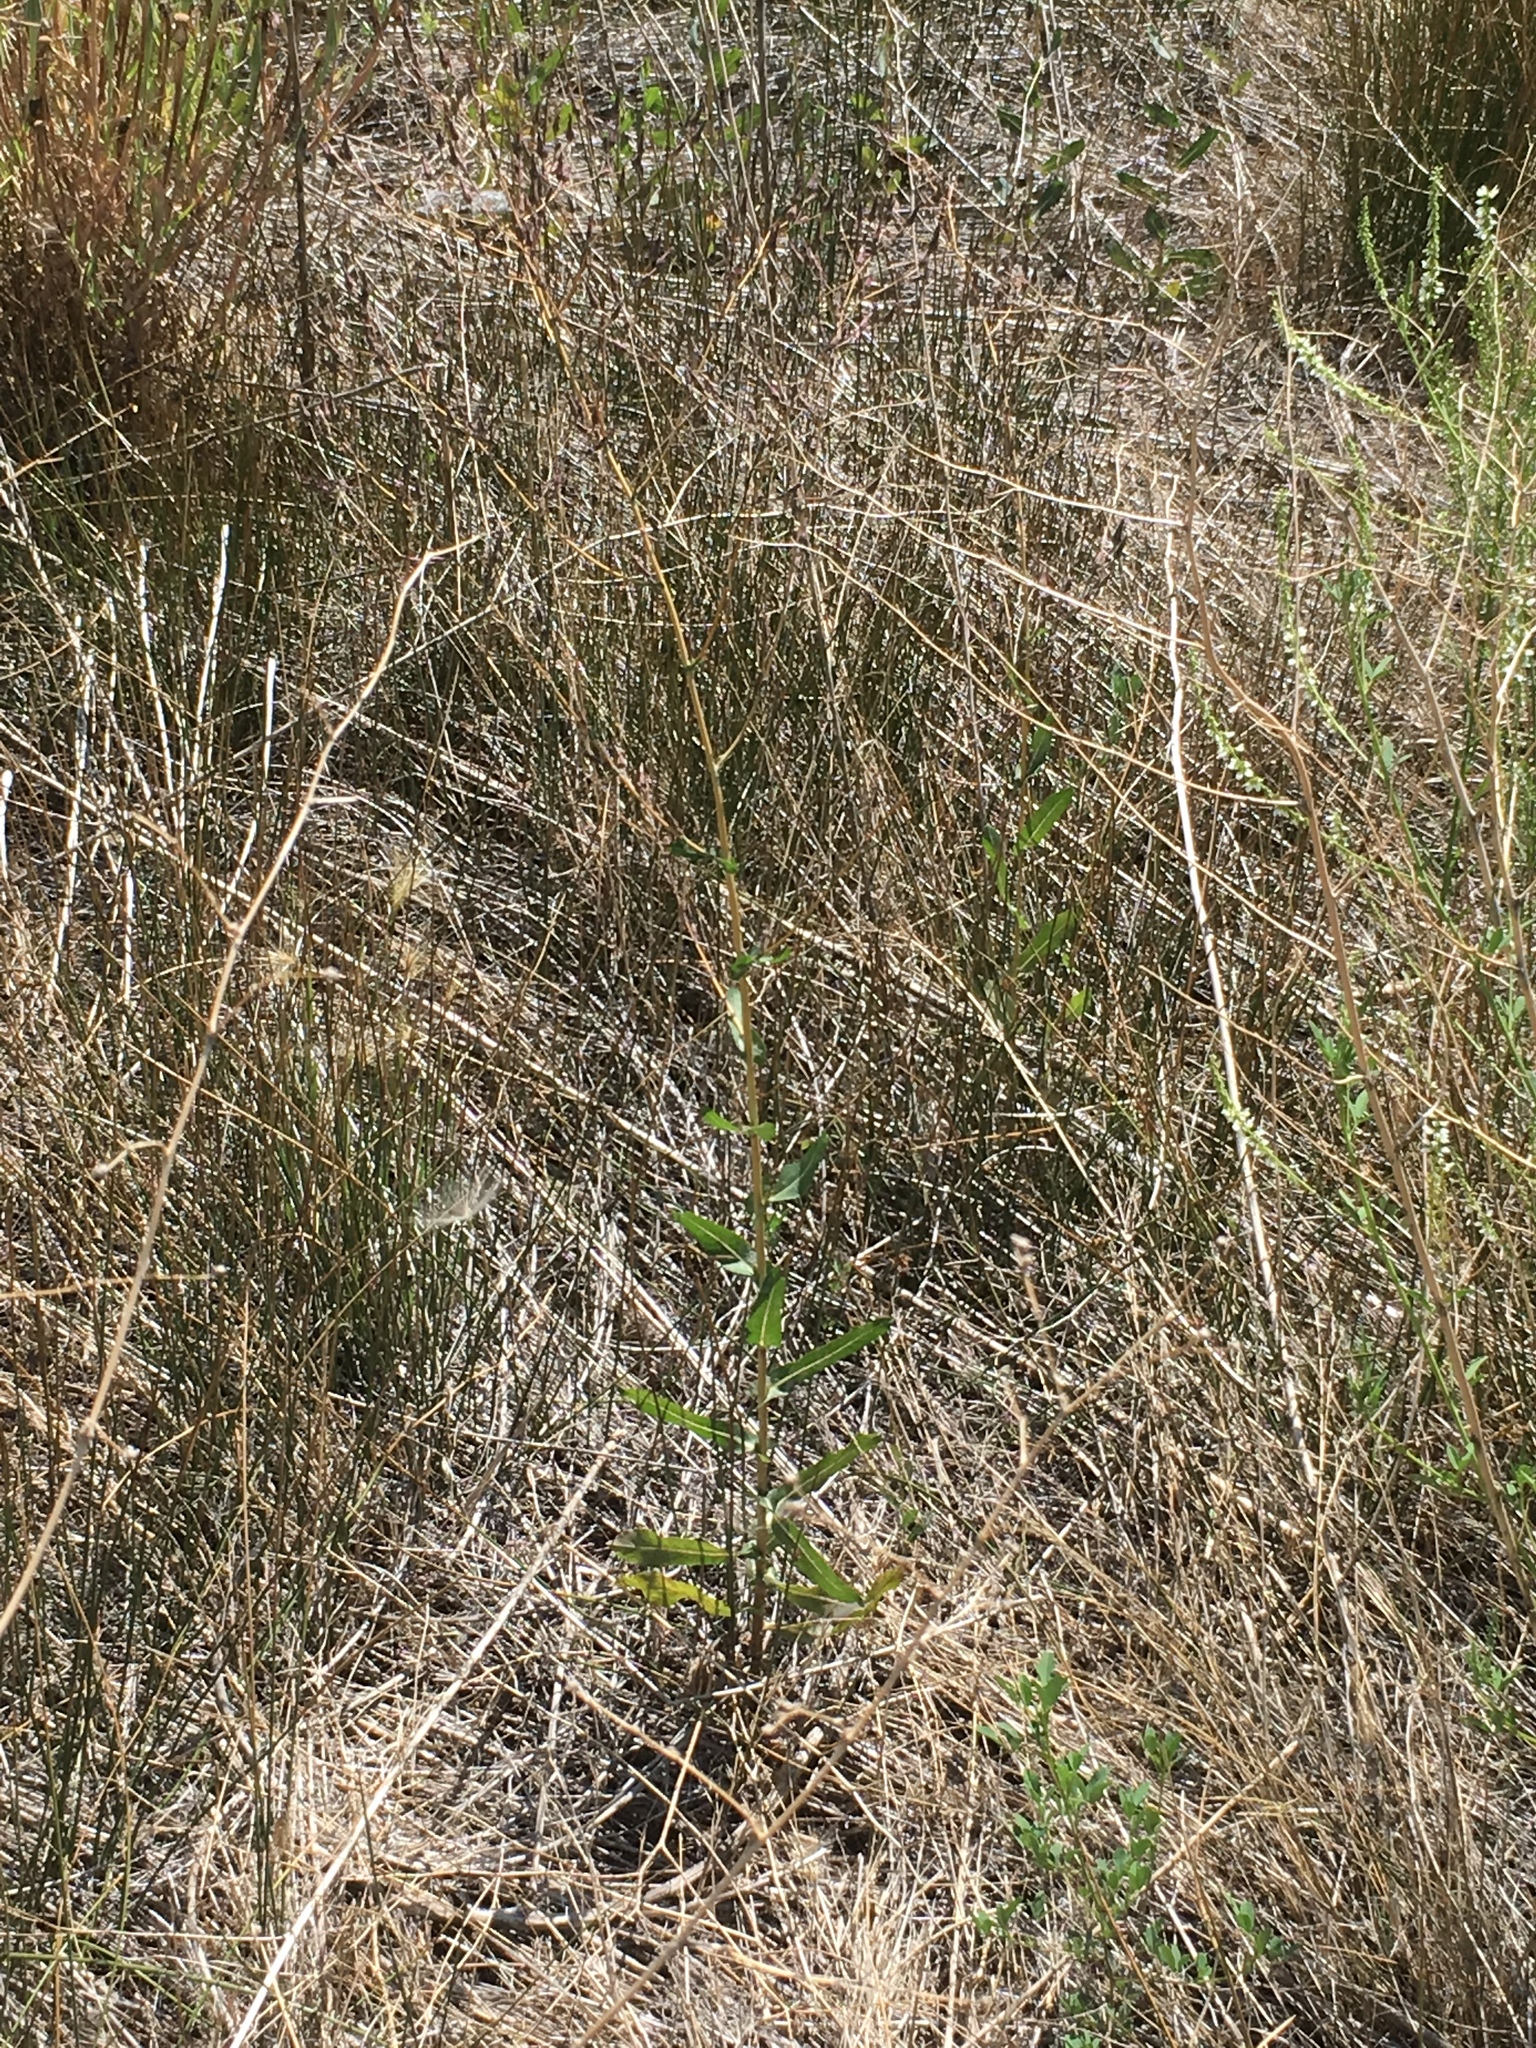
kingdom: Plantae
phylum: Tracheophyta
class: Magnoliopsida
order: Asterales
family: Asteraceae
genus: Lactuca
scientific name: Lactuca serriola
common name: Prickly lettuce
